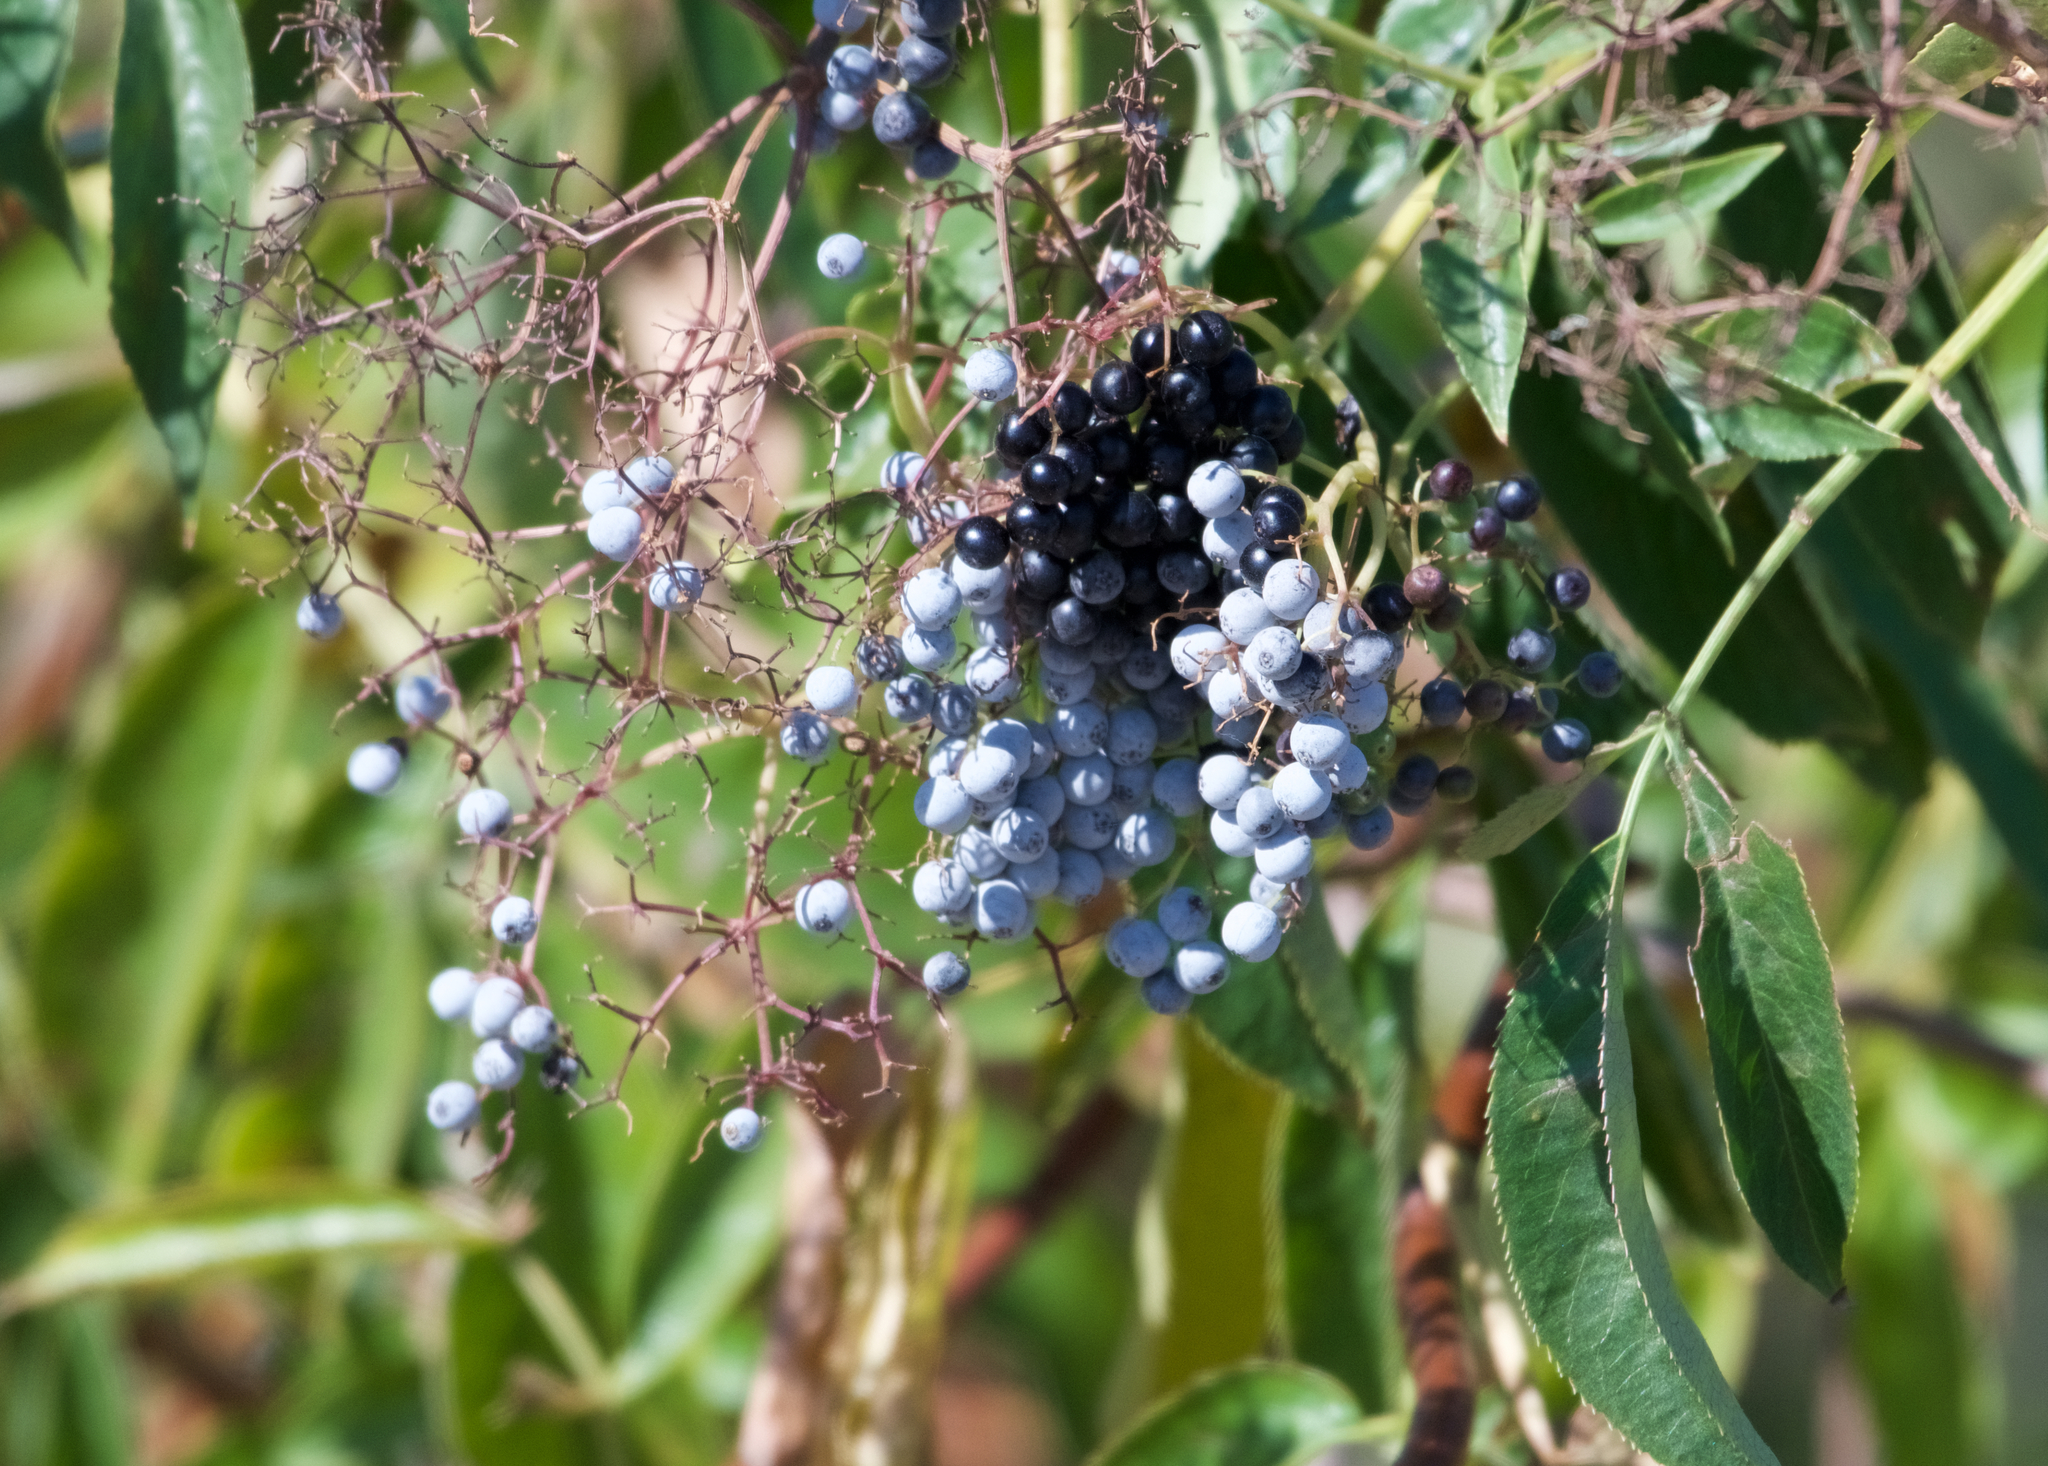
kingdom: Plantae
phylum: Tracheophyta
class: Magnoliopsida
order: Dipsacales
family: Viburnaceae
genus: Sambucus
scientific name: Sambucus cerulea
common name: Blue elder
